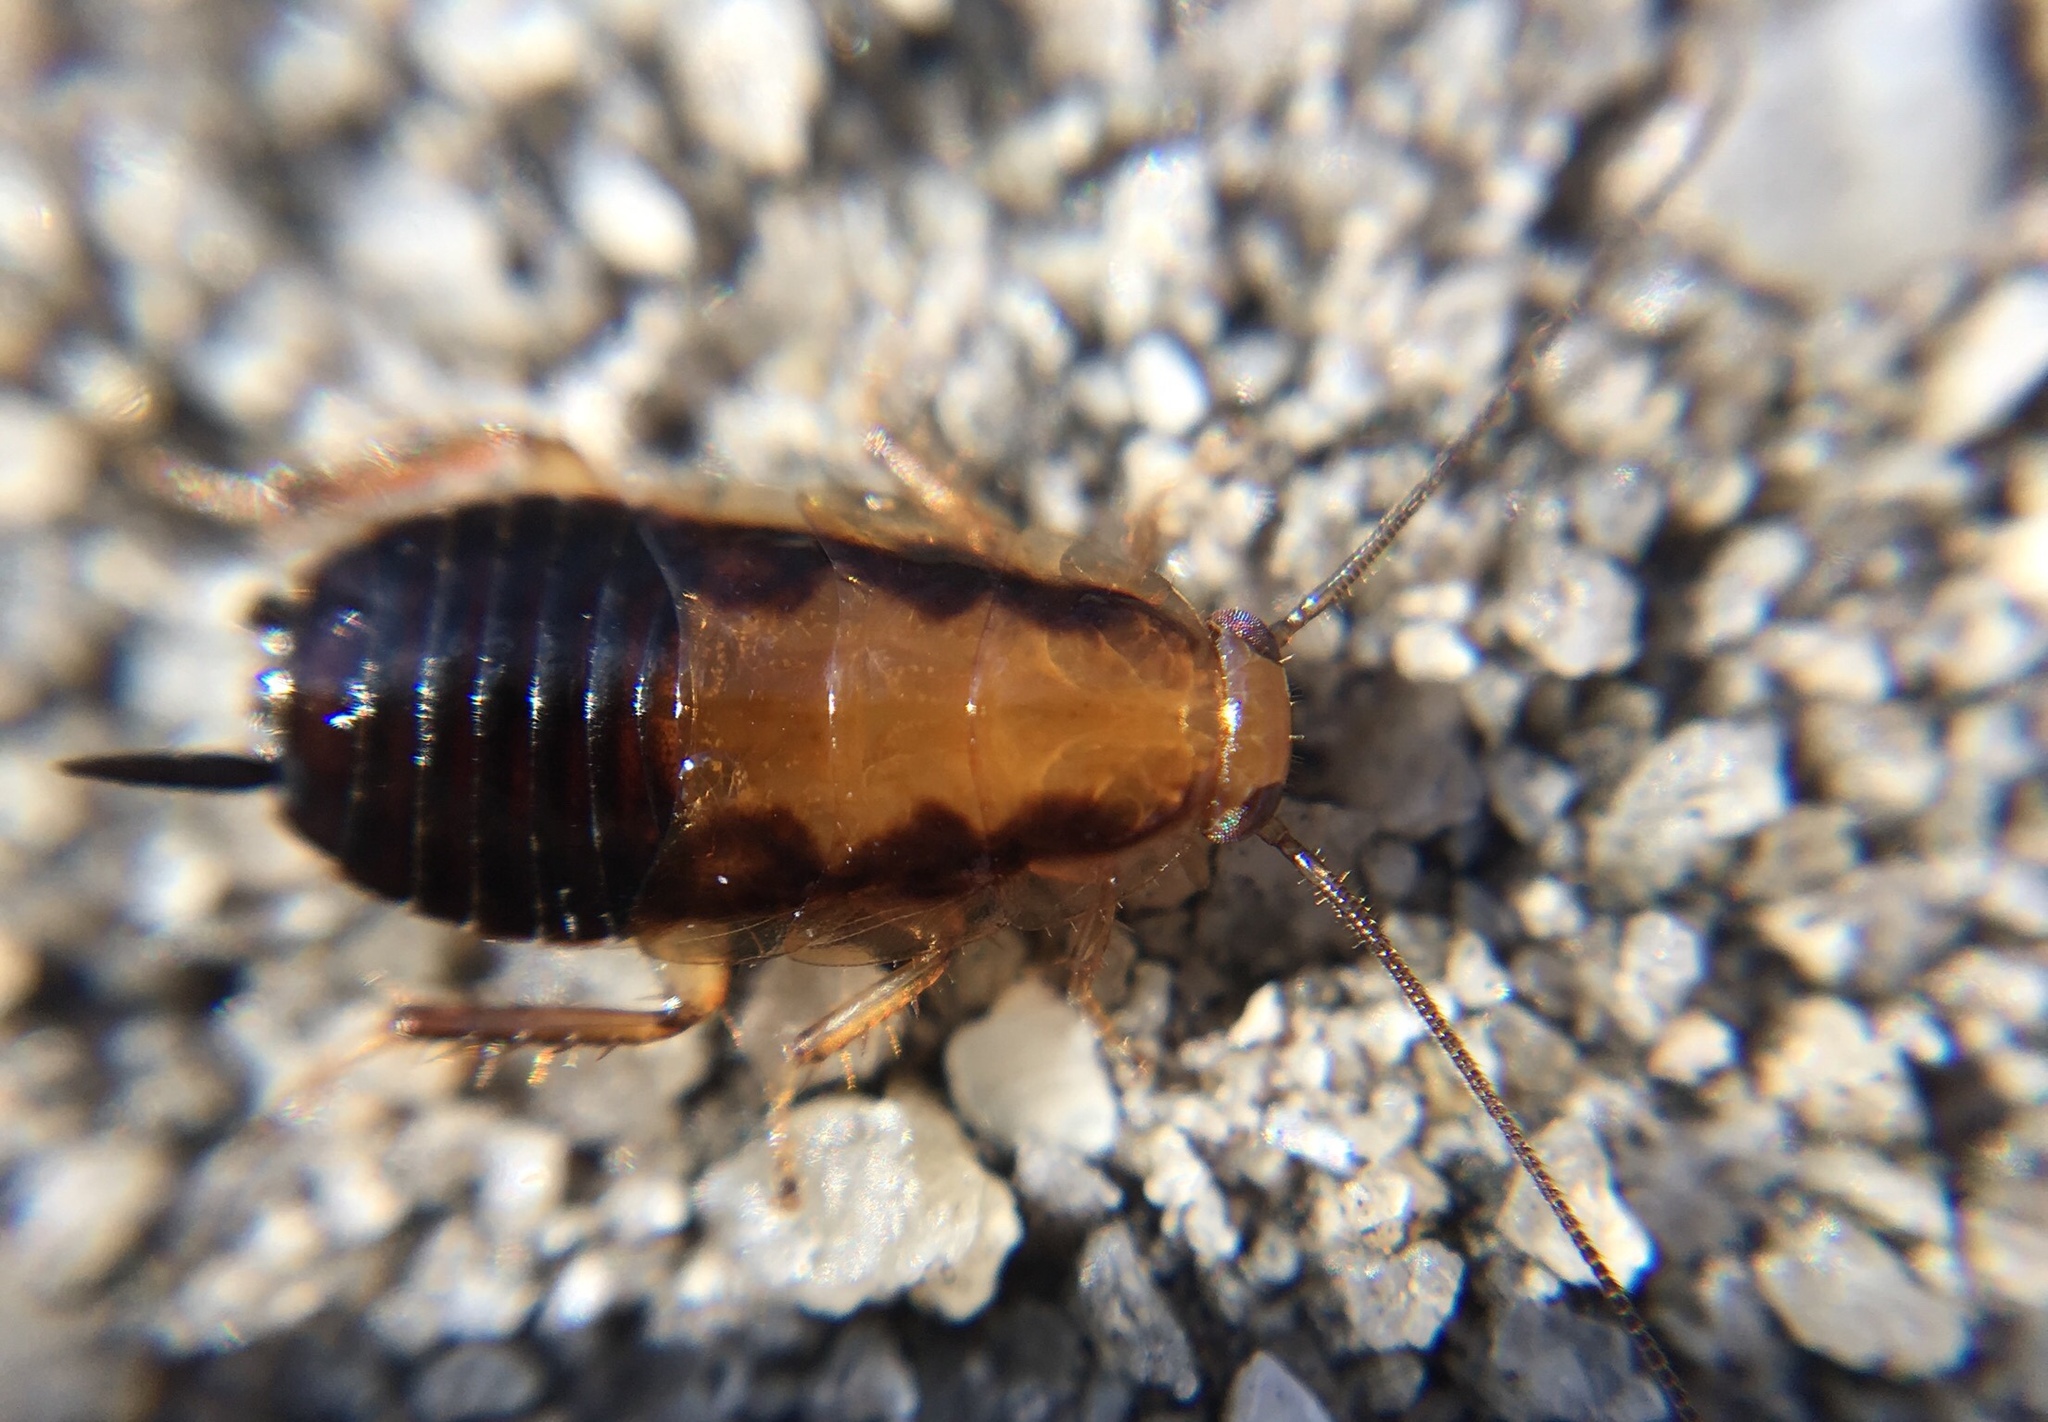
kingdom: Animalia
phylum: Arthropoda
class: Insecta
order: Blattodea
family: Ectobiidae
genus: Chorisoneura
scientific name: Chorisoneura texensis
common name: Small texas cockroach
